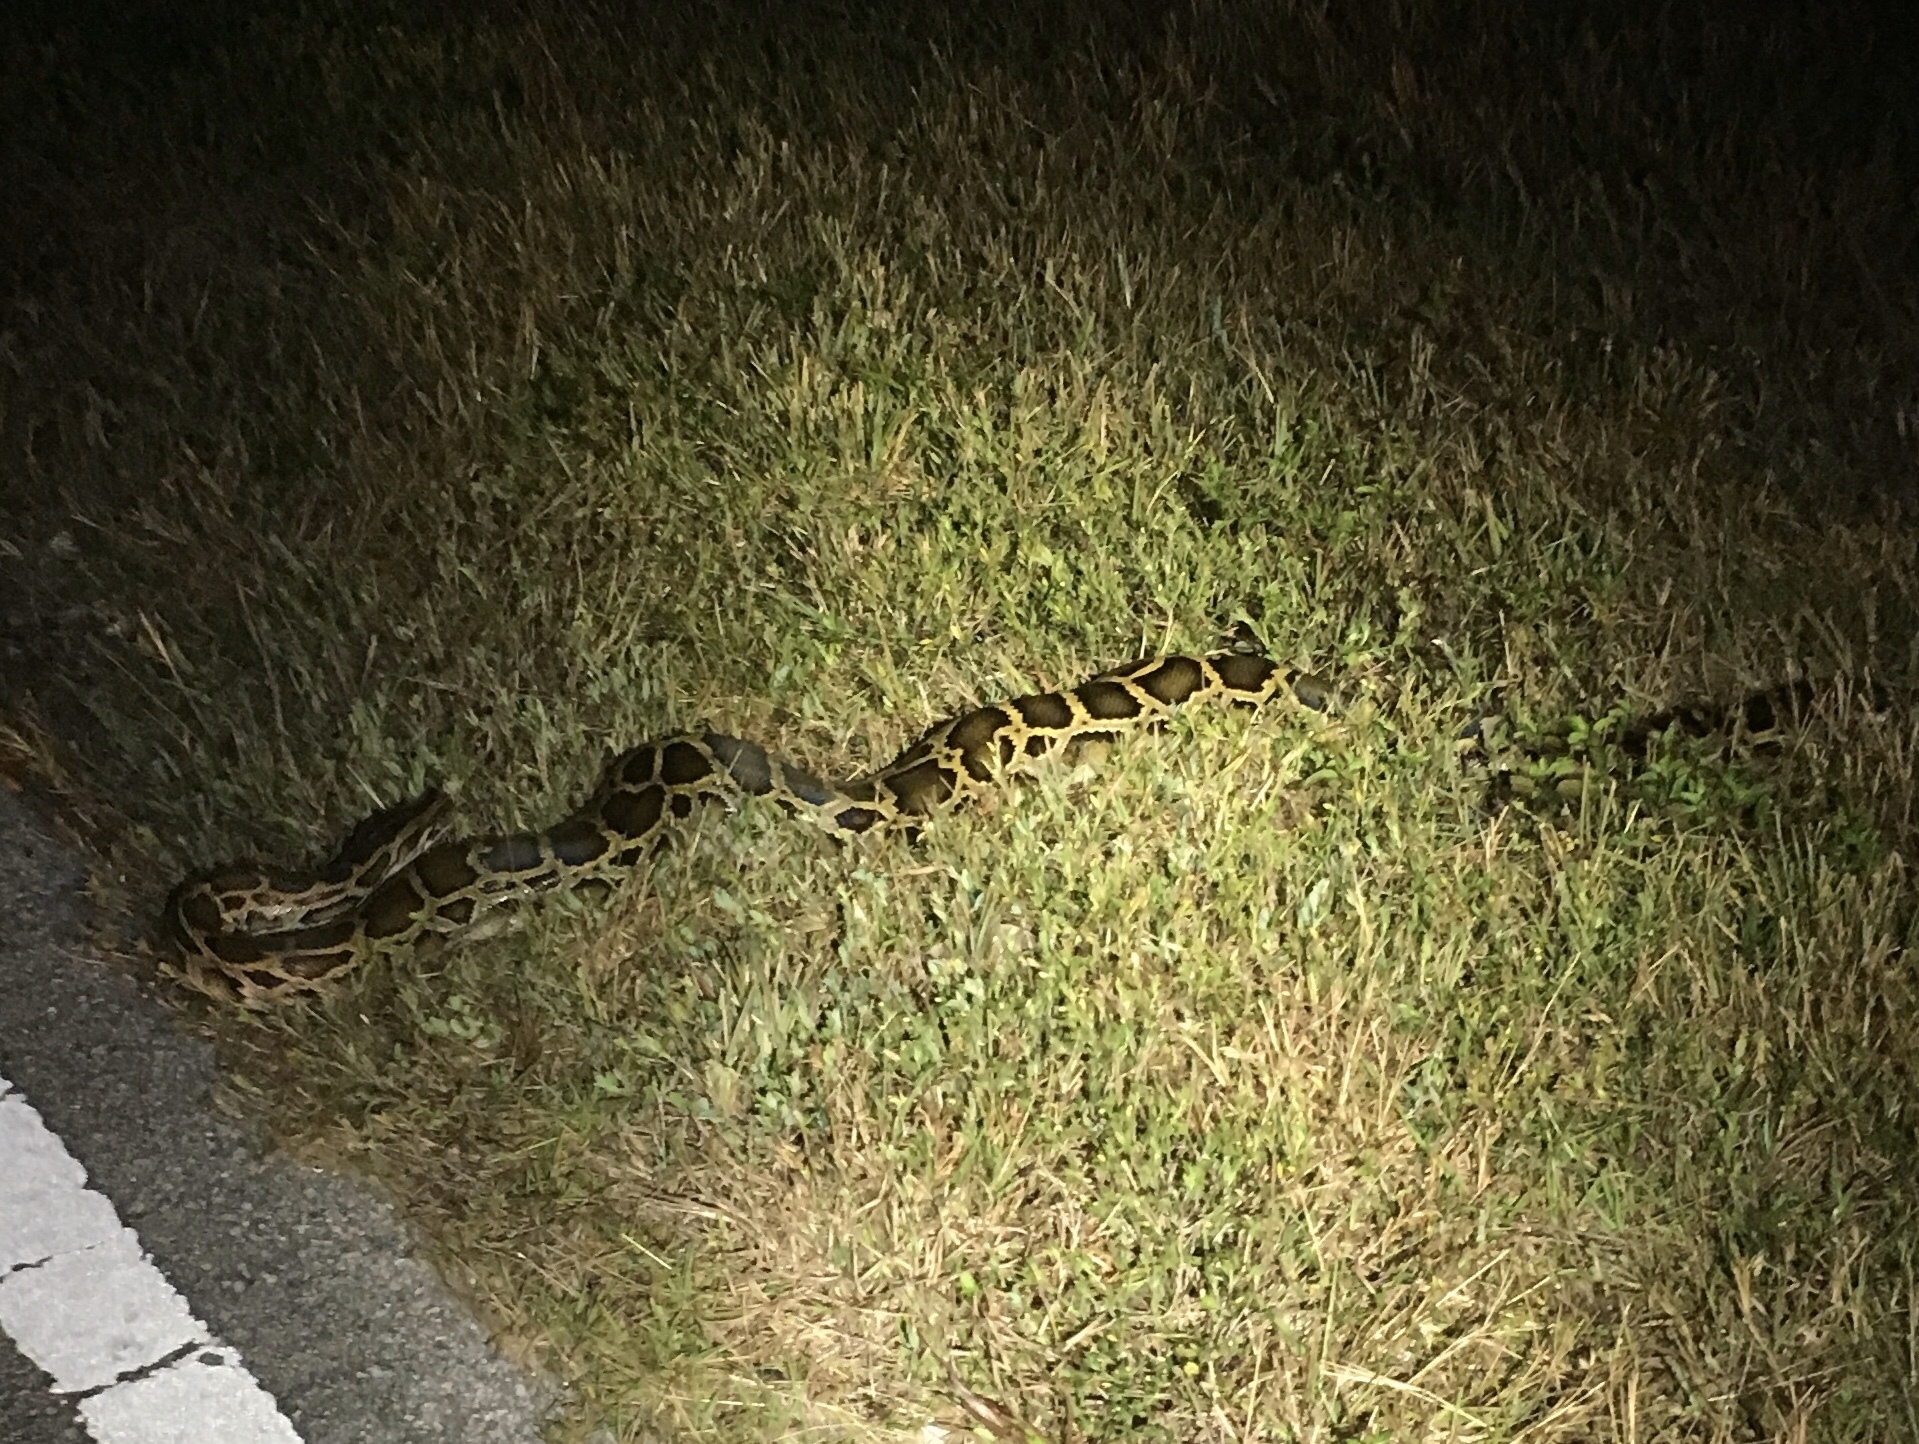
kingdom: Animalia
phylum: Chordata
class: Squamata
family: Pythonidae
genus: Python
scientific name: Python bivittatus
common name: Burmese python
